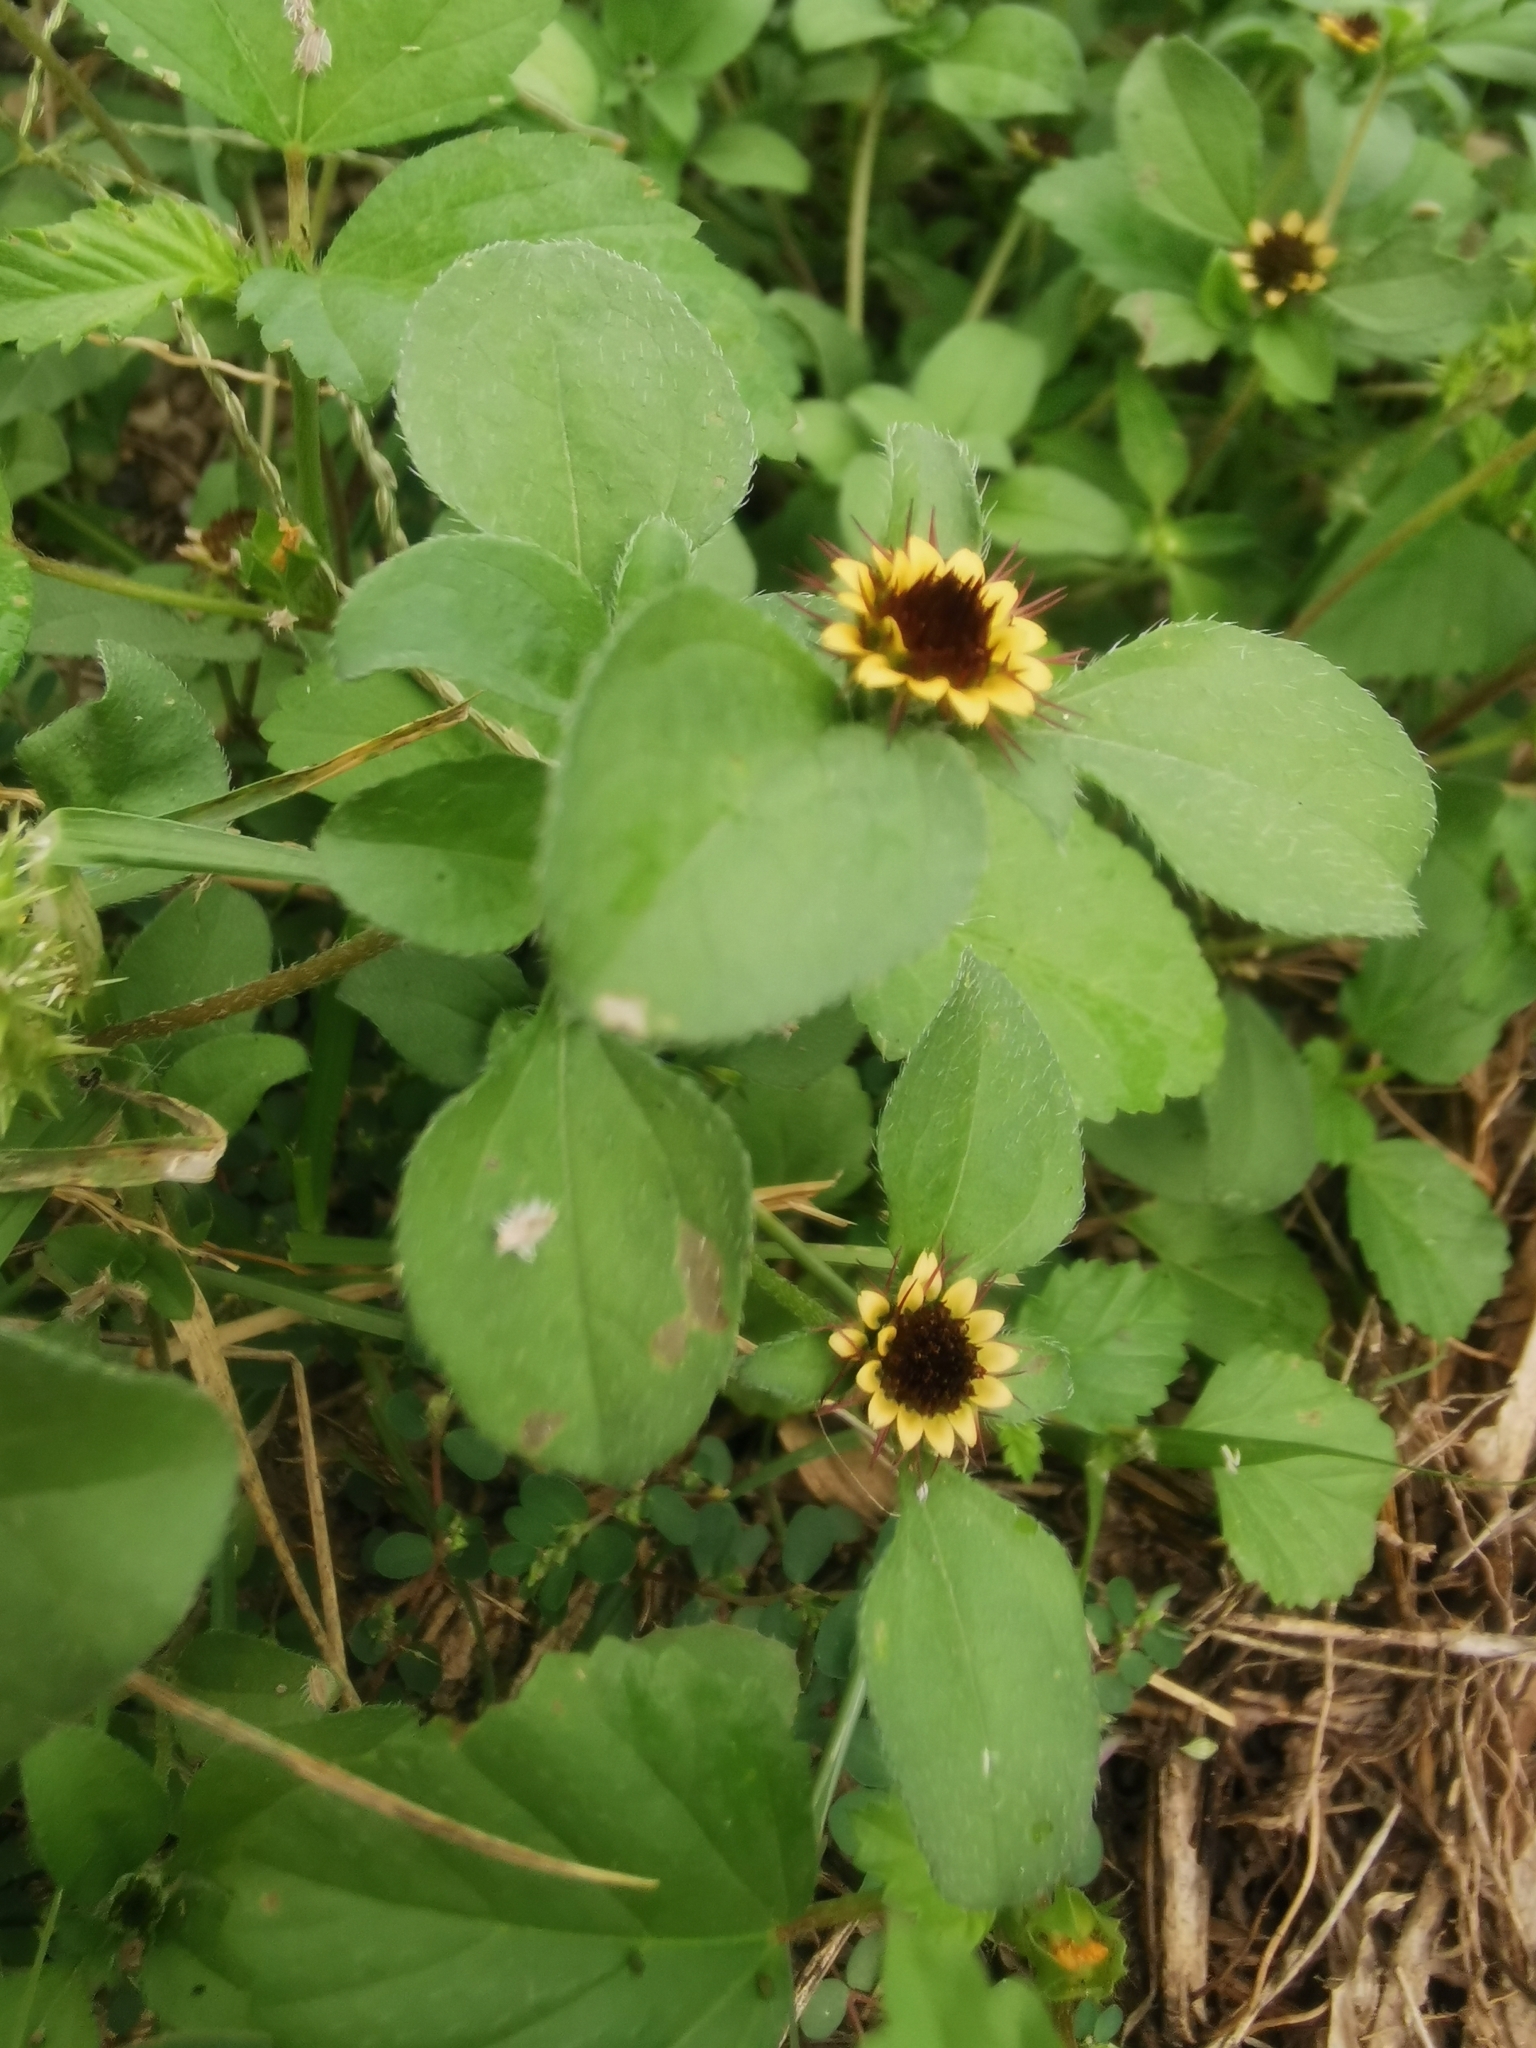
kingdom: Plantae
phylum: Tracheophyta
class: Magnoliopsida
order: Asterales
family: Asteraceae
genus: Sanvitalia
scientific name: Sanvitalia ocymoides
